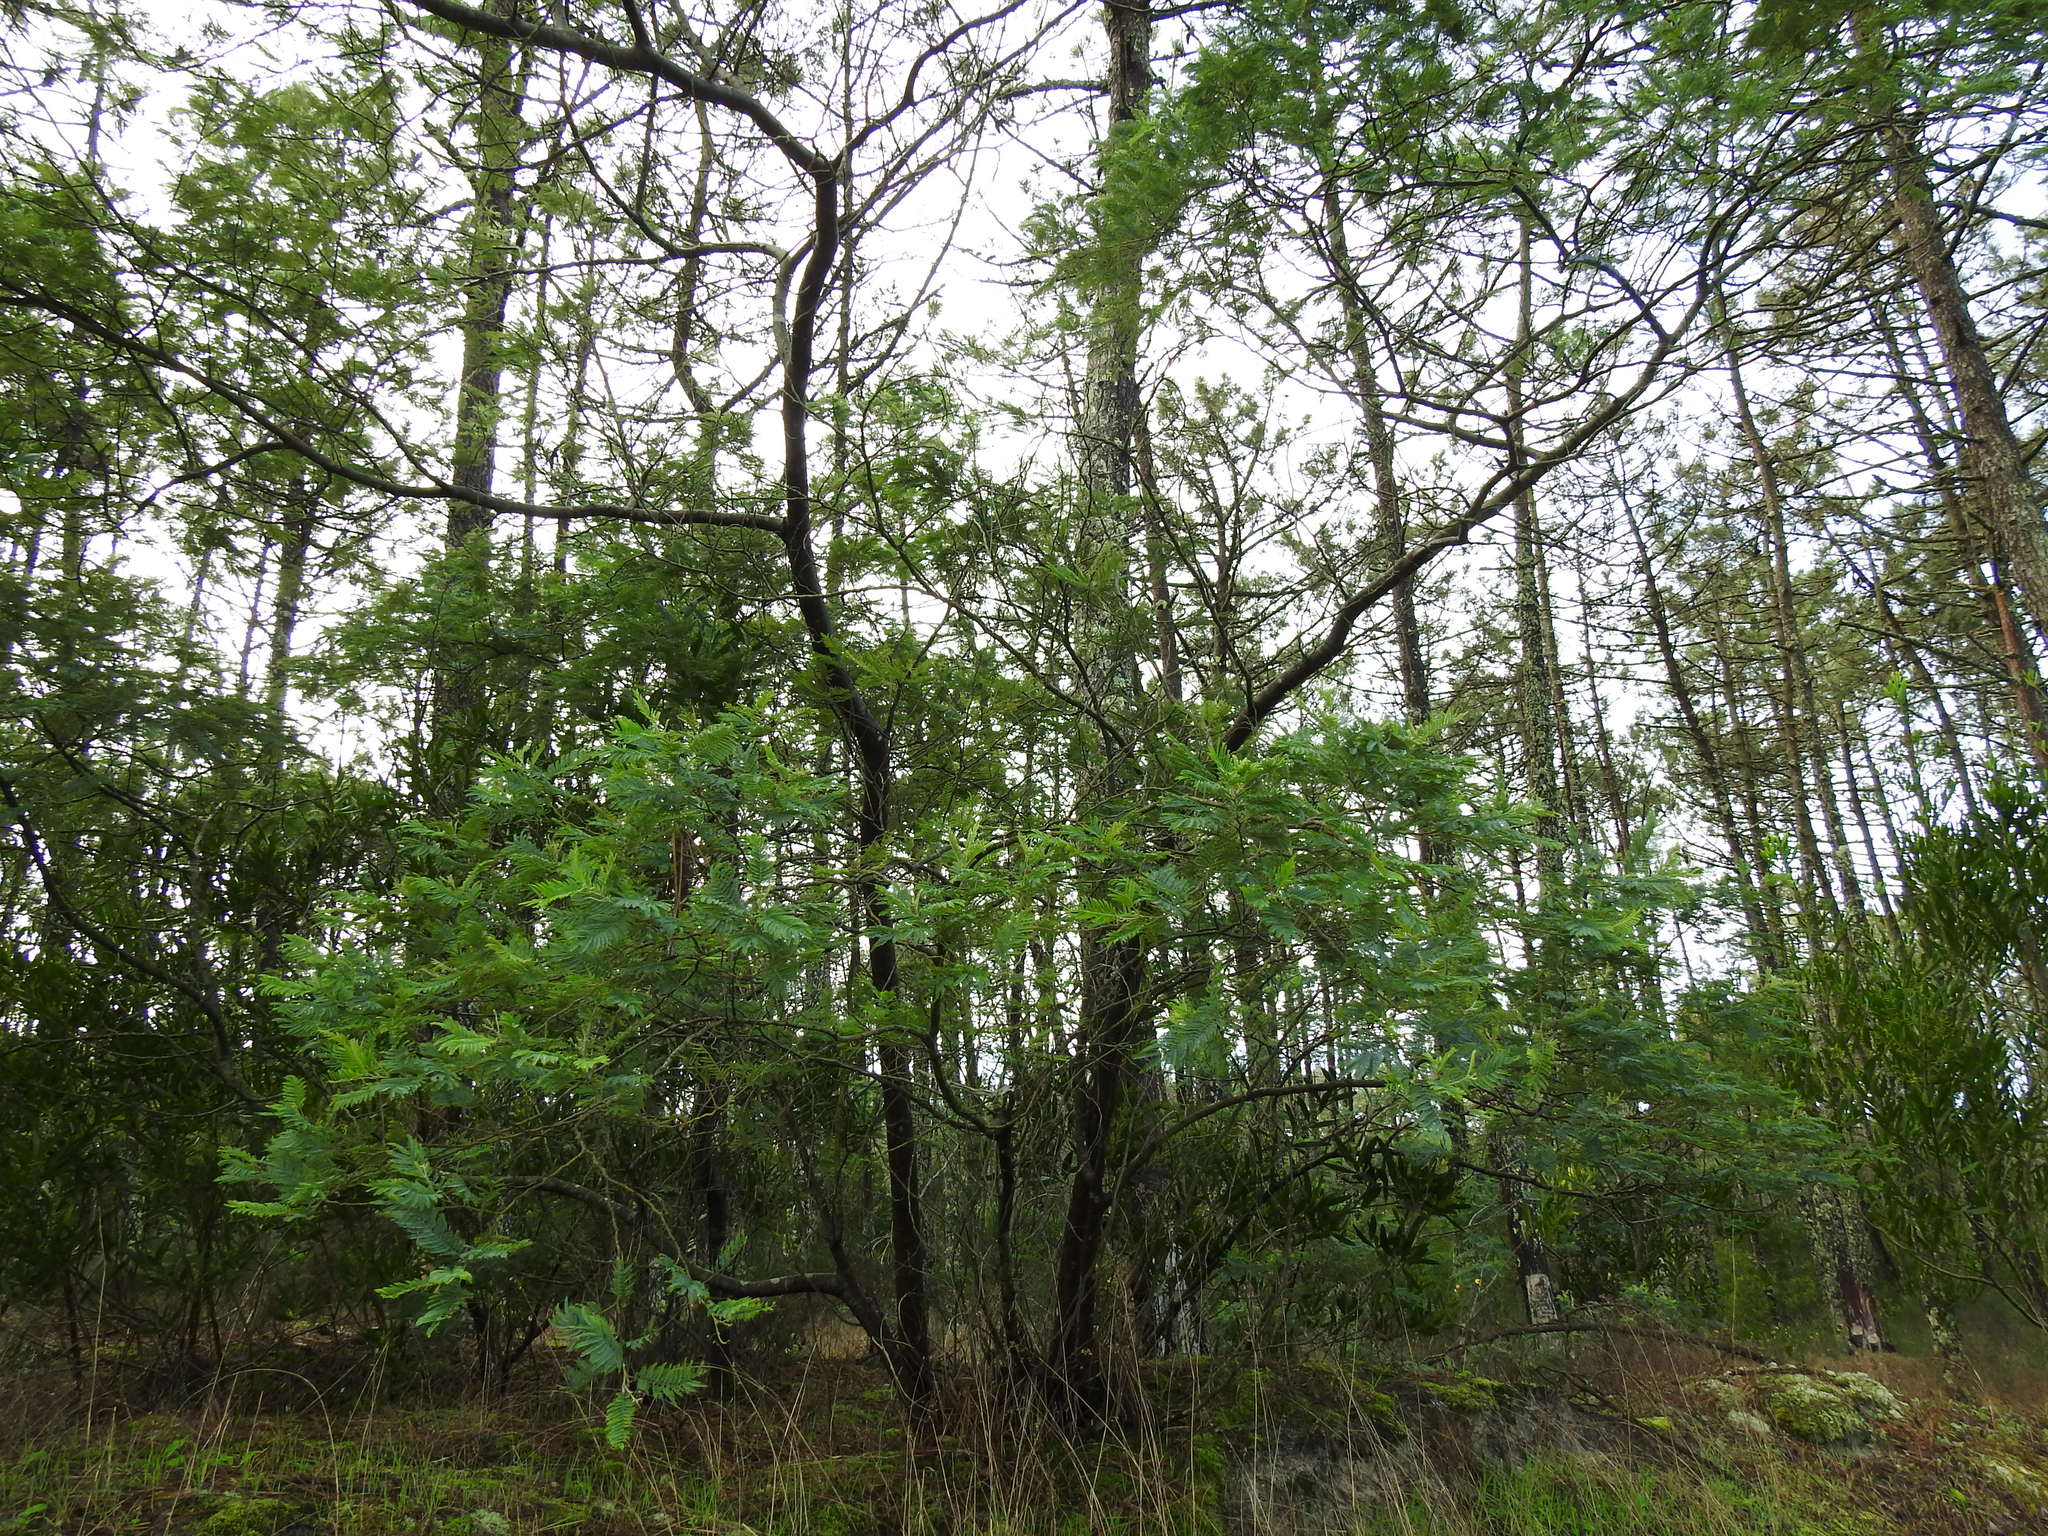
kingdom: Plantae
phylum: Tracheophyta
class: Magnoliopsida
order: Fabales
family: Fabaceae
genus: Acacia
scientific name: Acacia dealbata
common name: Silver wattle
